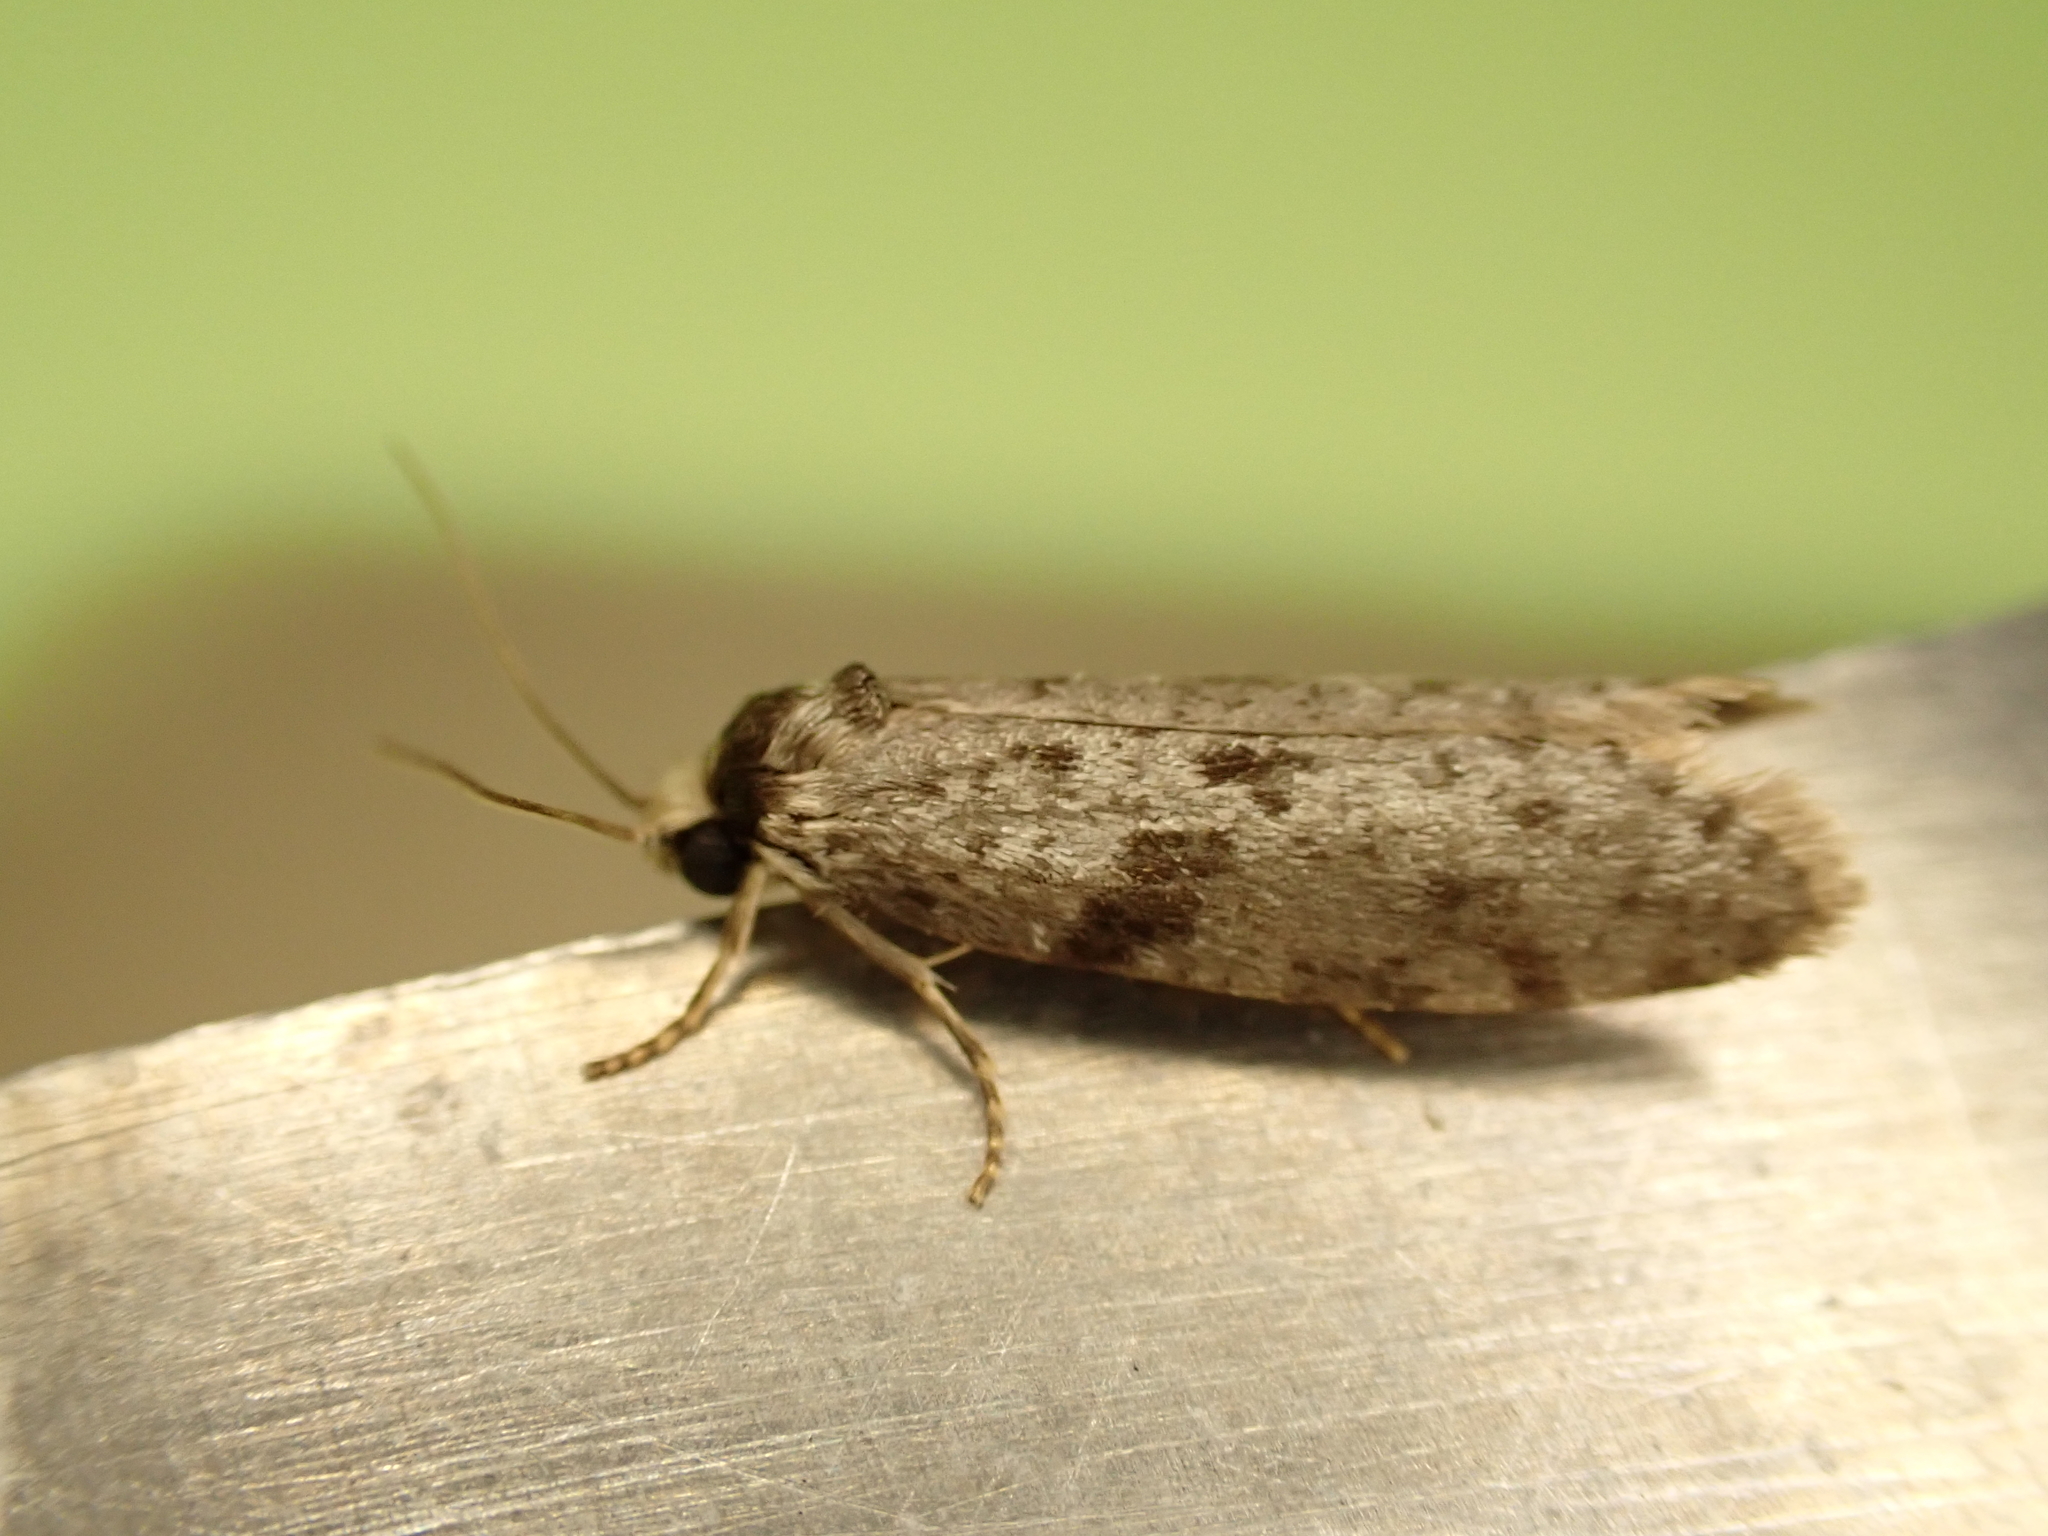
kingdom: Animalia
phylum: Arthropoda
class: Insecta
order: Lepidoptera
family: Psychidae
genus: Lepidoscia
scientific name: Lepidoscia protorna
